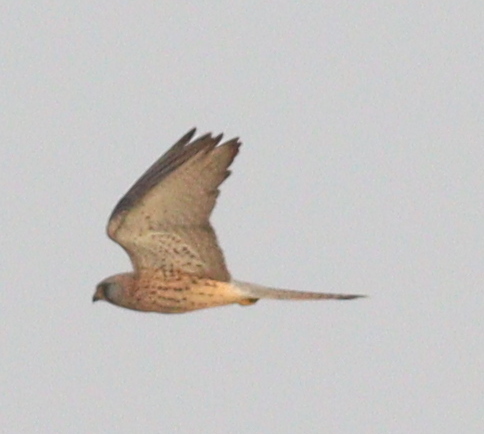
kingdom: Animalia
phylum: Chordata
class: Aves
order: Falconiformes
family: Falconidae
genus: Falco
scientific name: Falco tinnunculus
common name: Common kestrel
